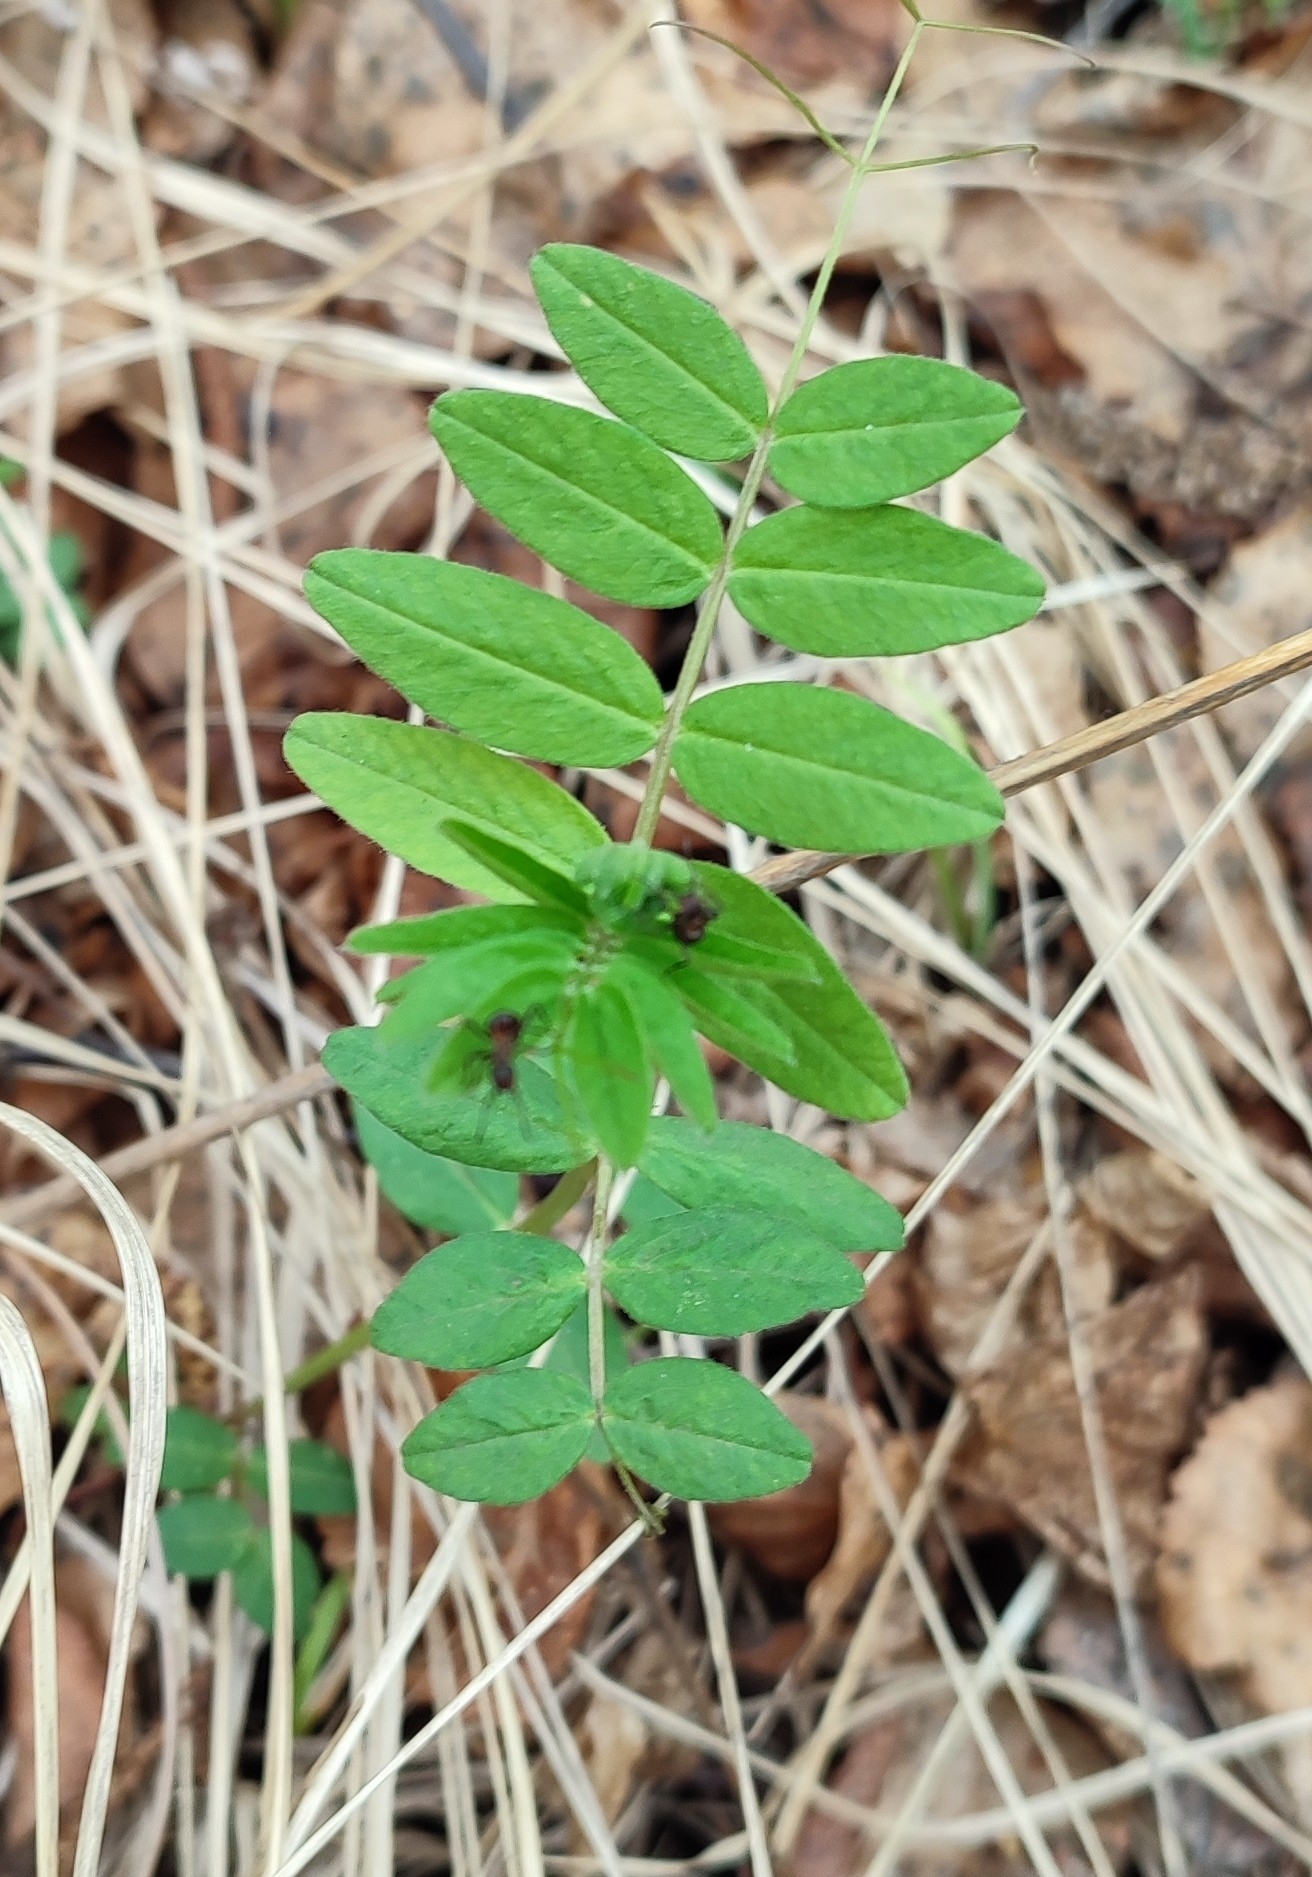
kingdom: Plantae
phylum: Tracheophyta
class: Magnoliopsida
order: Fabales
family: Fabaceae
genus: Vicia
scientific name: Vicia sepium
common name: Bush vetch
